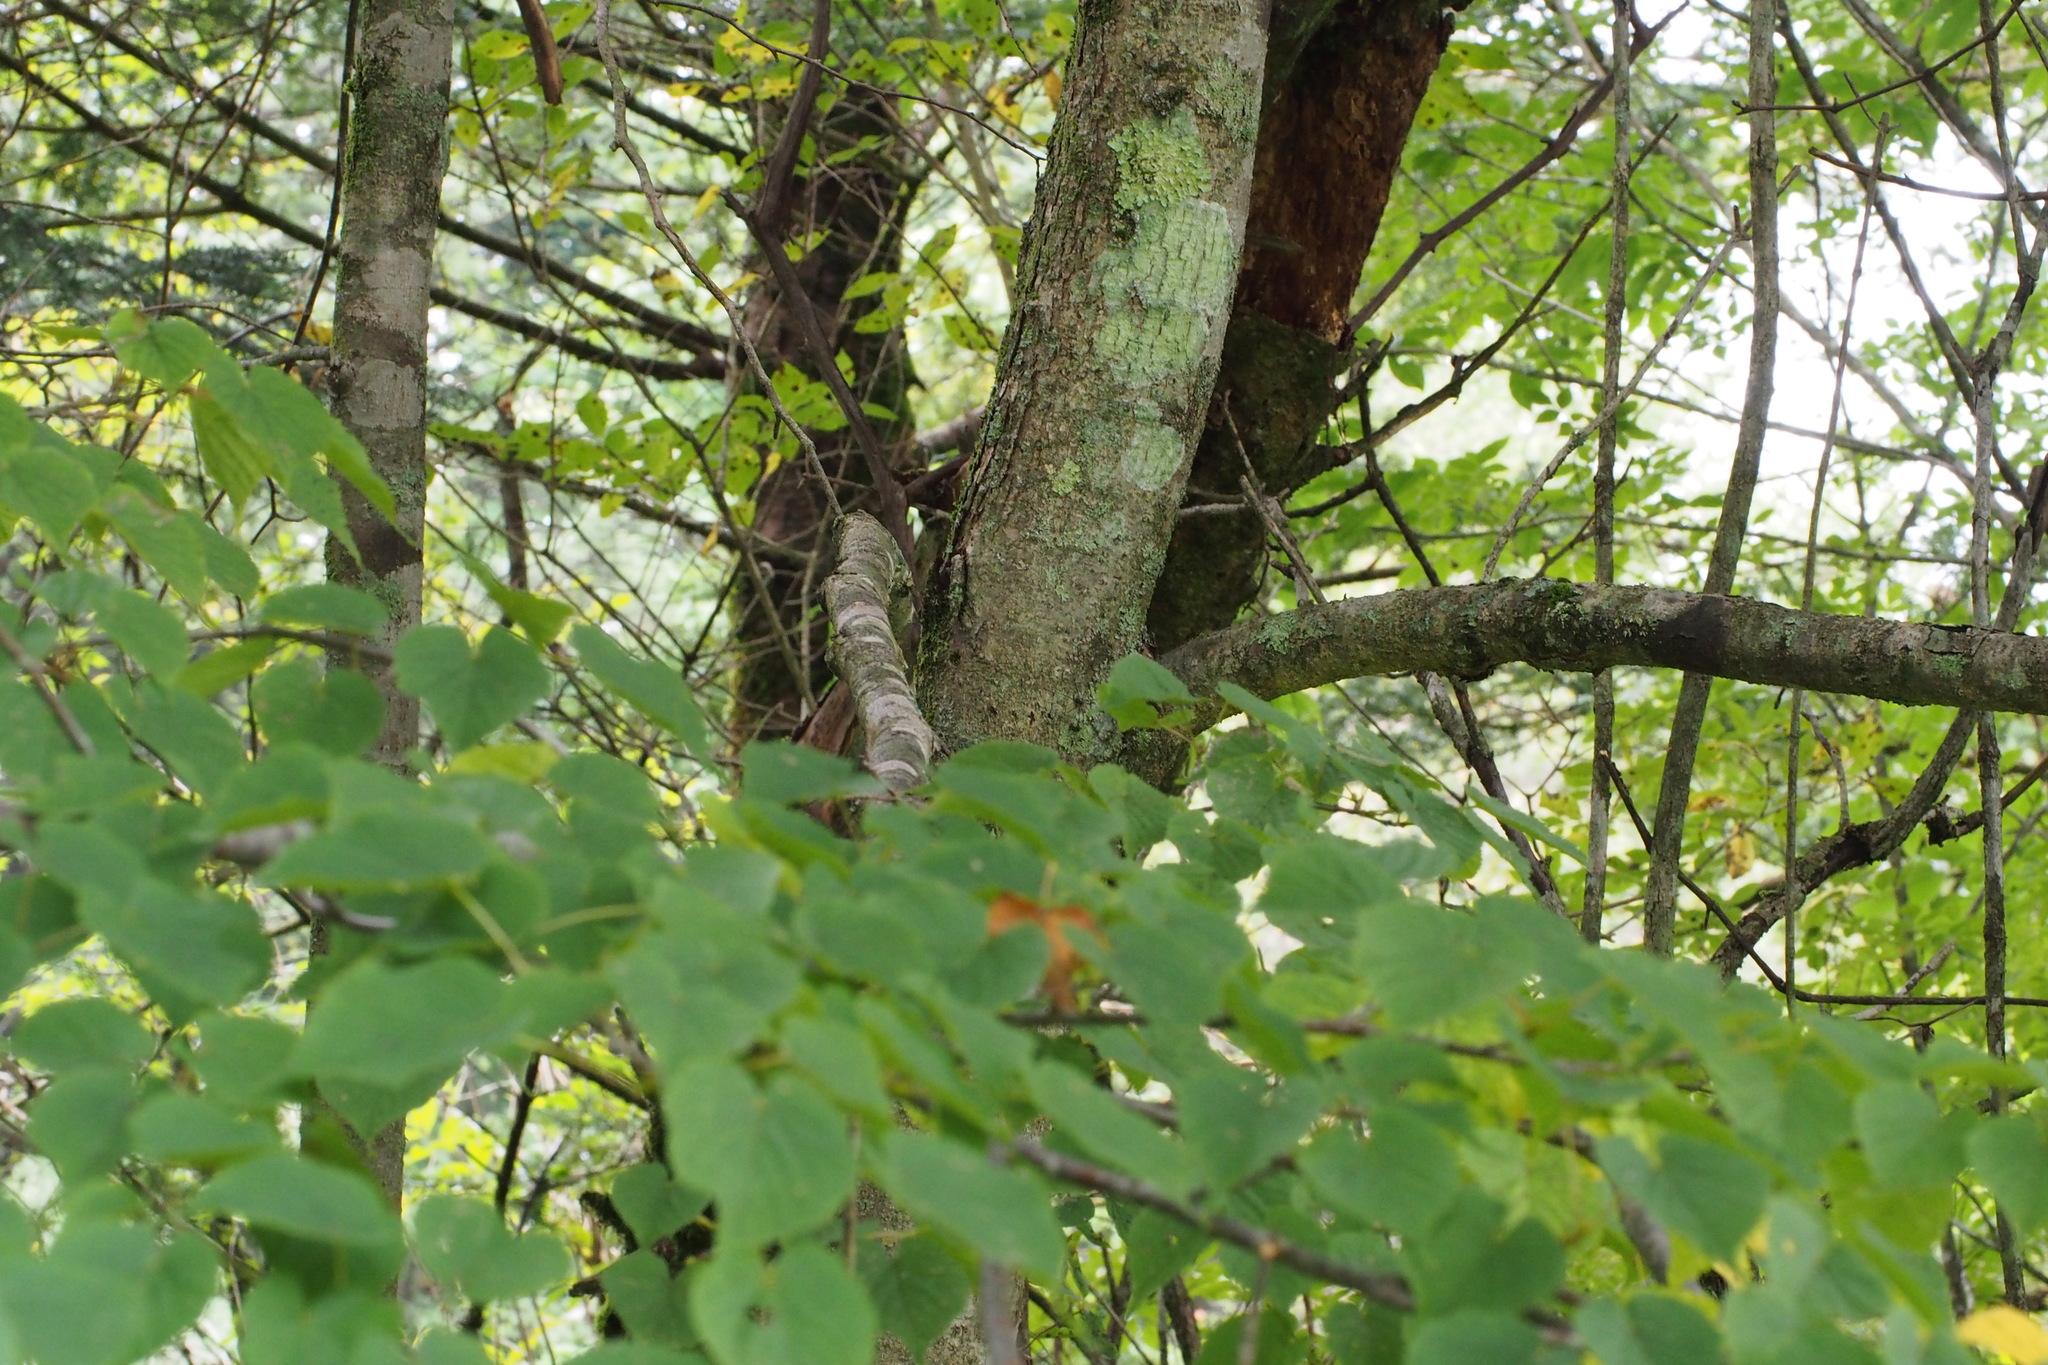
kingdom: Plantae
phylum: Tracheophyta
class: Magnoliopsida
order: Malvales
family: Malvaceae
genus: Tilia
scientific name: Tilia japonica
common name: Japanese lime
